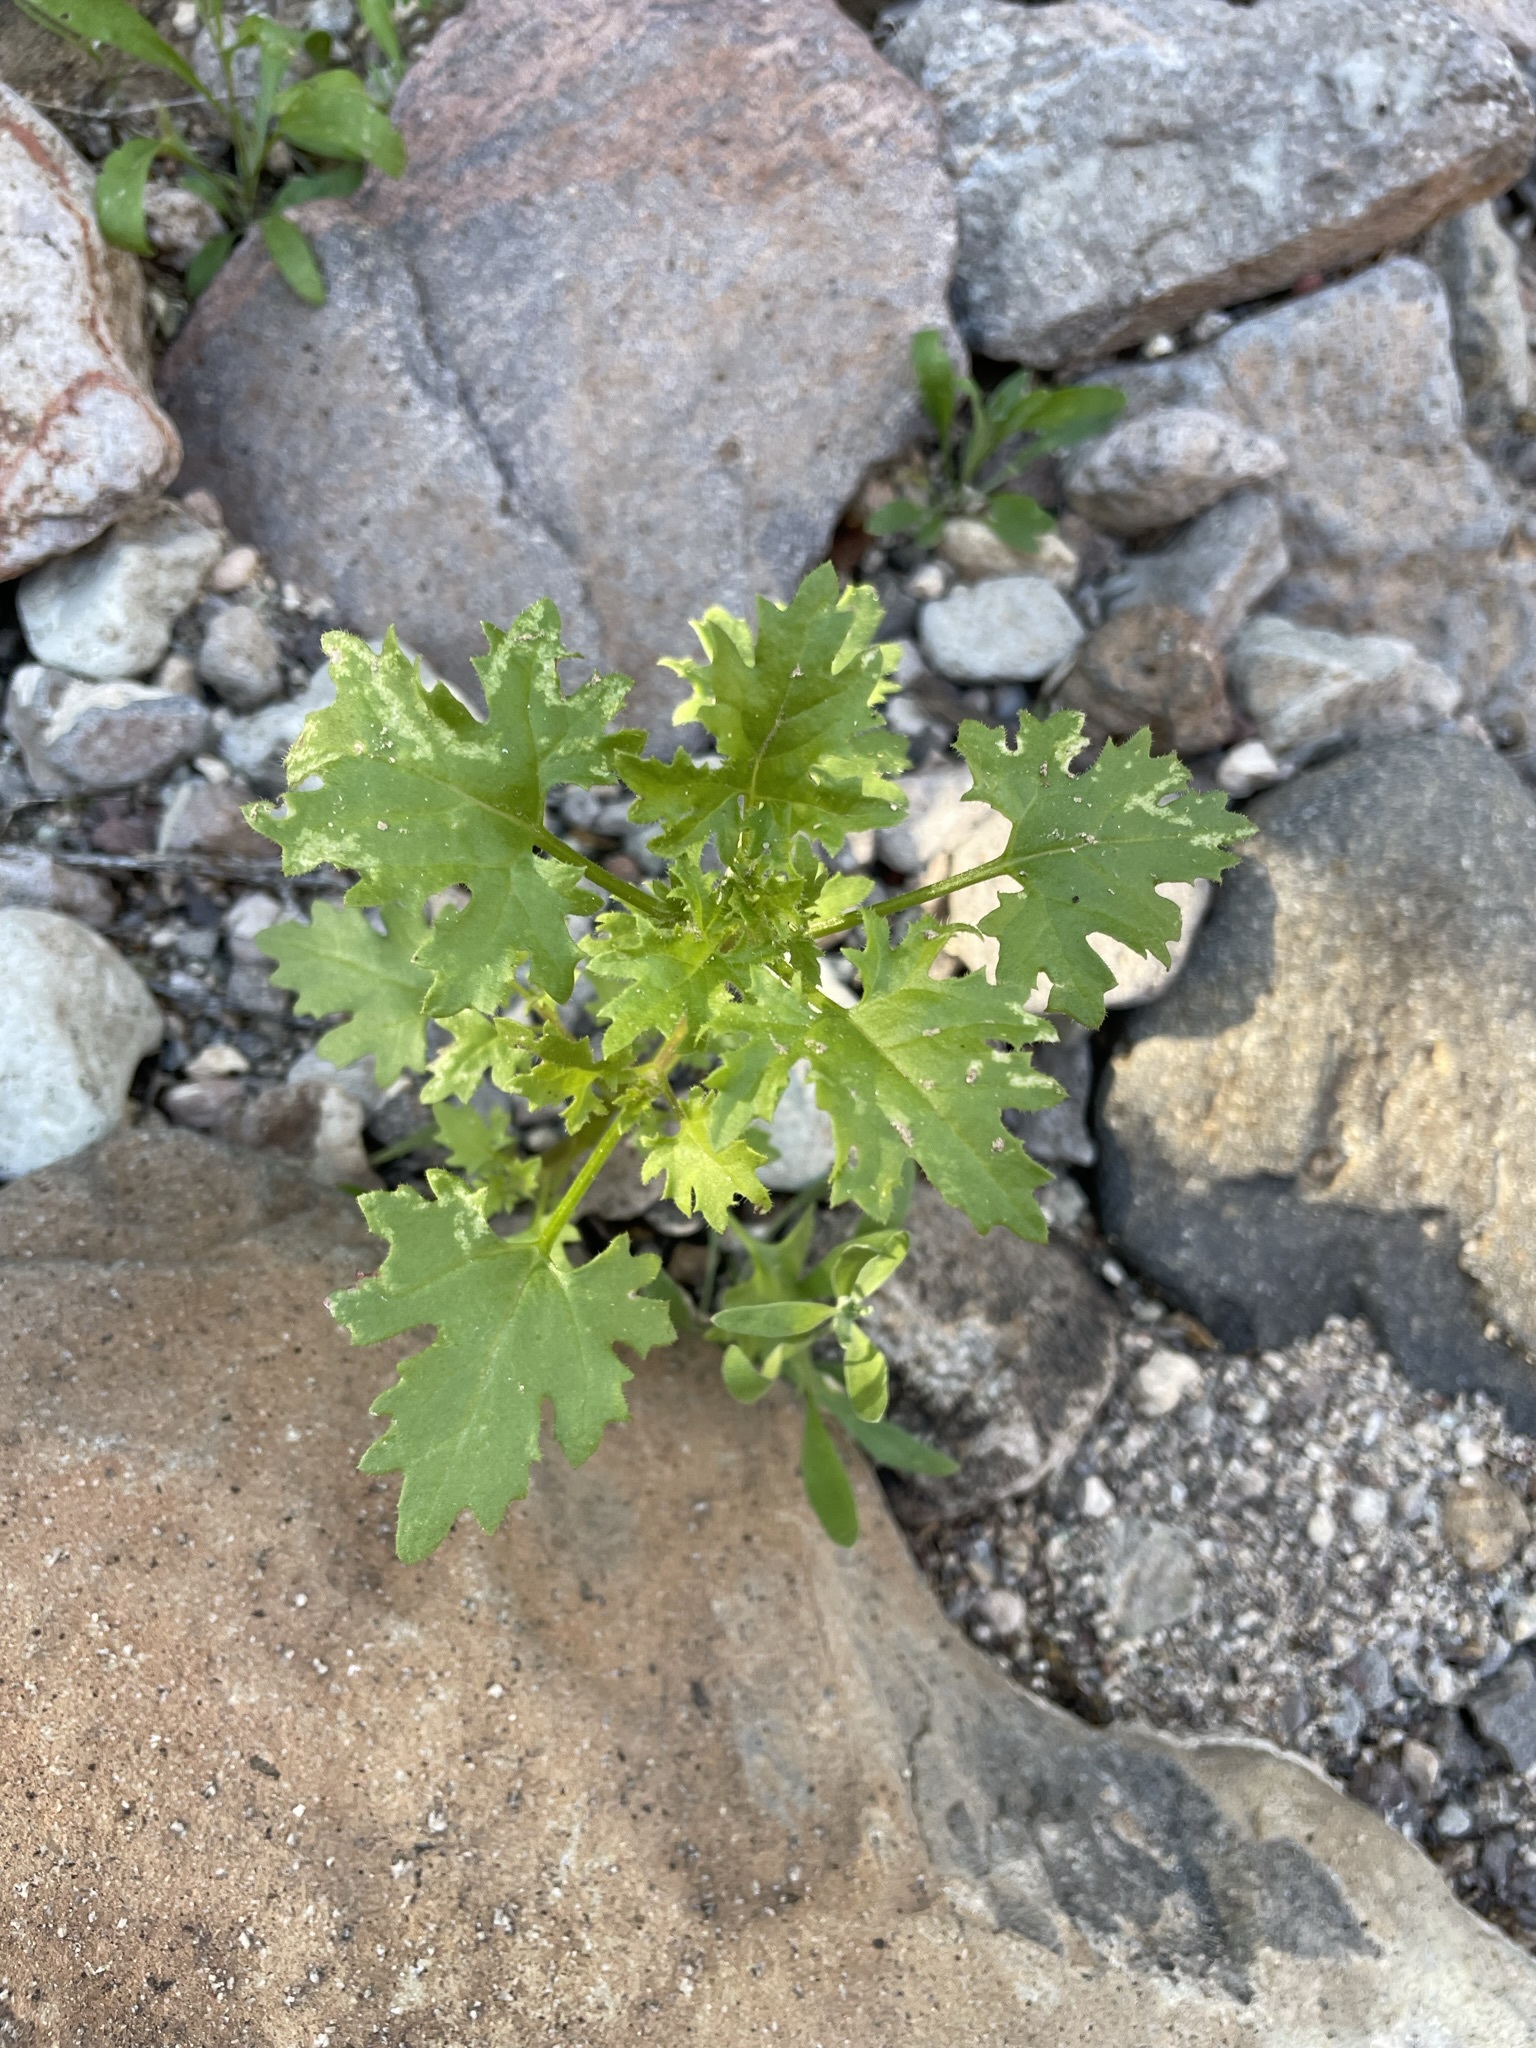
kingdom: Plantae
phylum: Tracheophyta
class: Magnoliopsida
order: Asterales
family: Asteraceae
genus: Laphamia
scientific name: Laphamia emoryi
